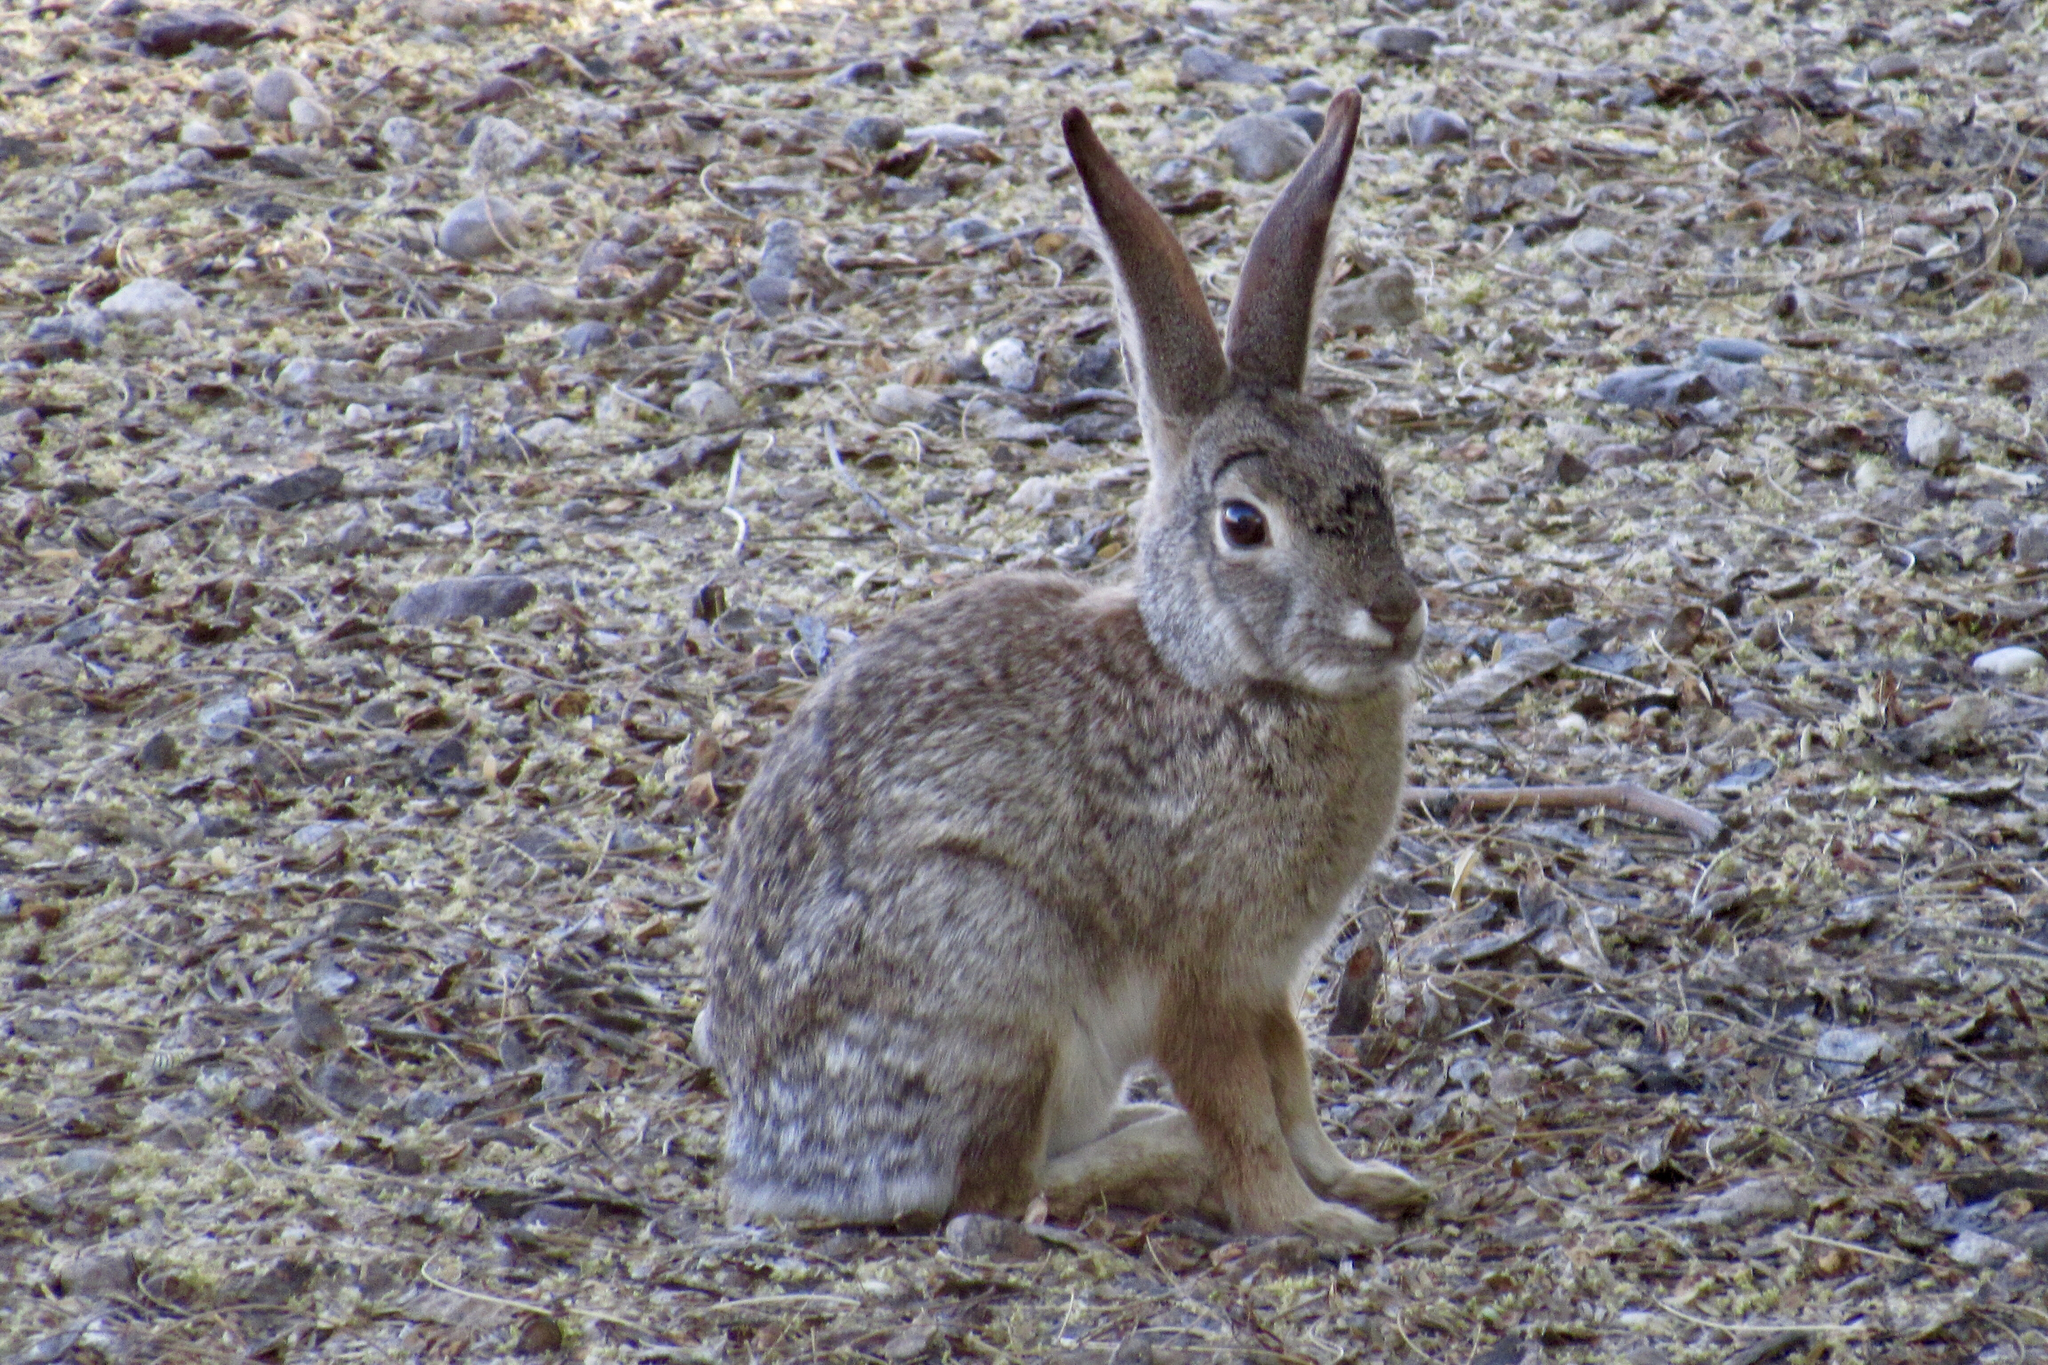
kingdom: Animalia
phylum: Chordata
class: Mammalia
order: Lagomorpha
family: Leporidae
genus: Sylvilagus
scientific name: Sylvilagus audubonii
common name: Desert cottontail
